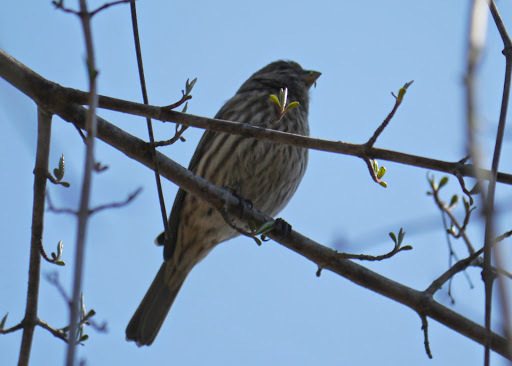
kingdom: Animalia
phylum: Chordata
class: Aves
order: Passeriformes
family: Fringillidae
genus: Haemorhous
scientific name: Haemorhous mexicanus
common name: House finch
